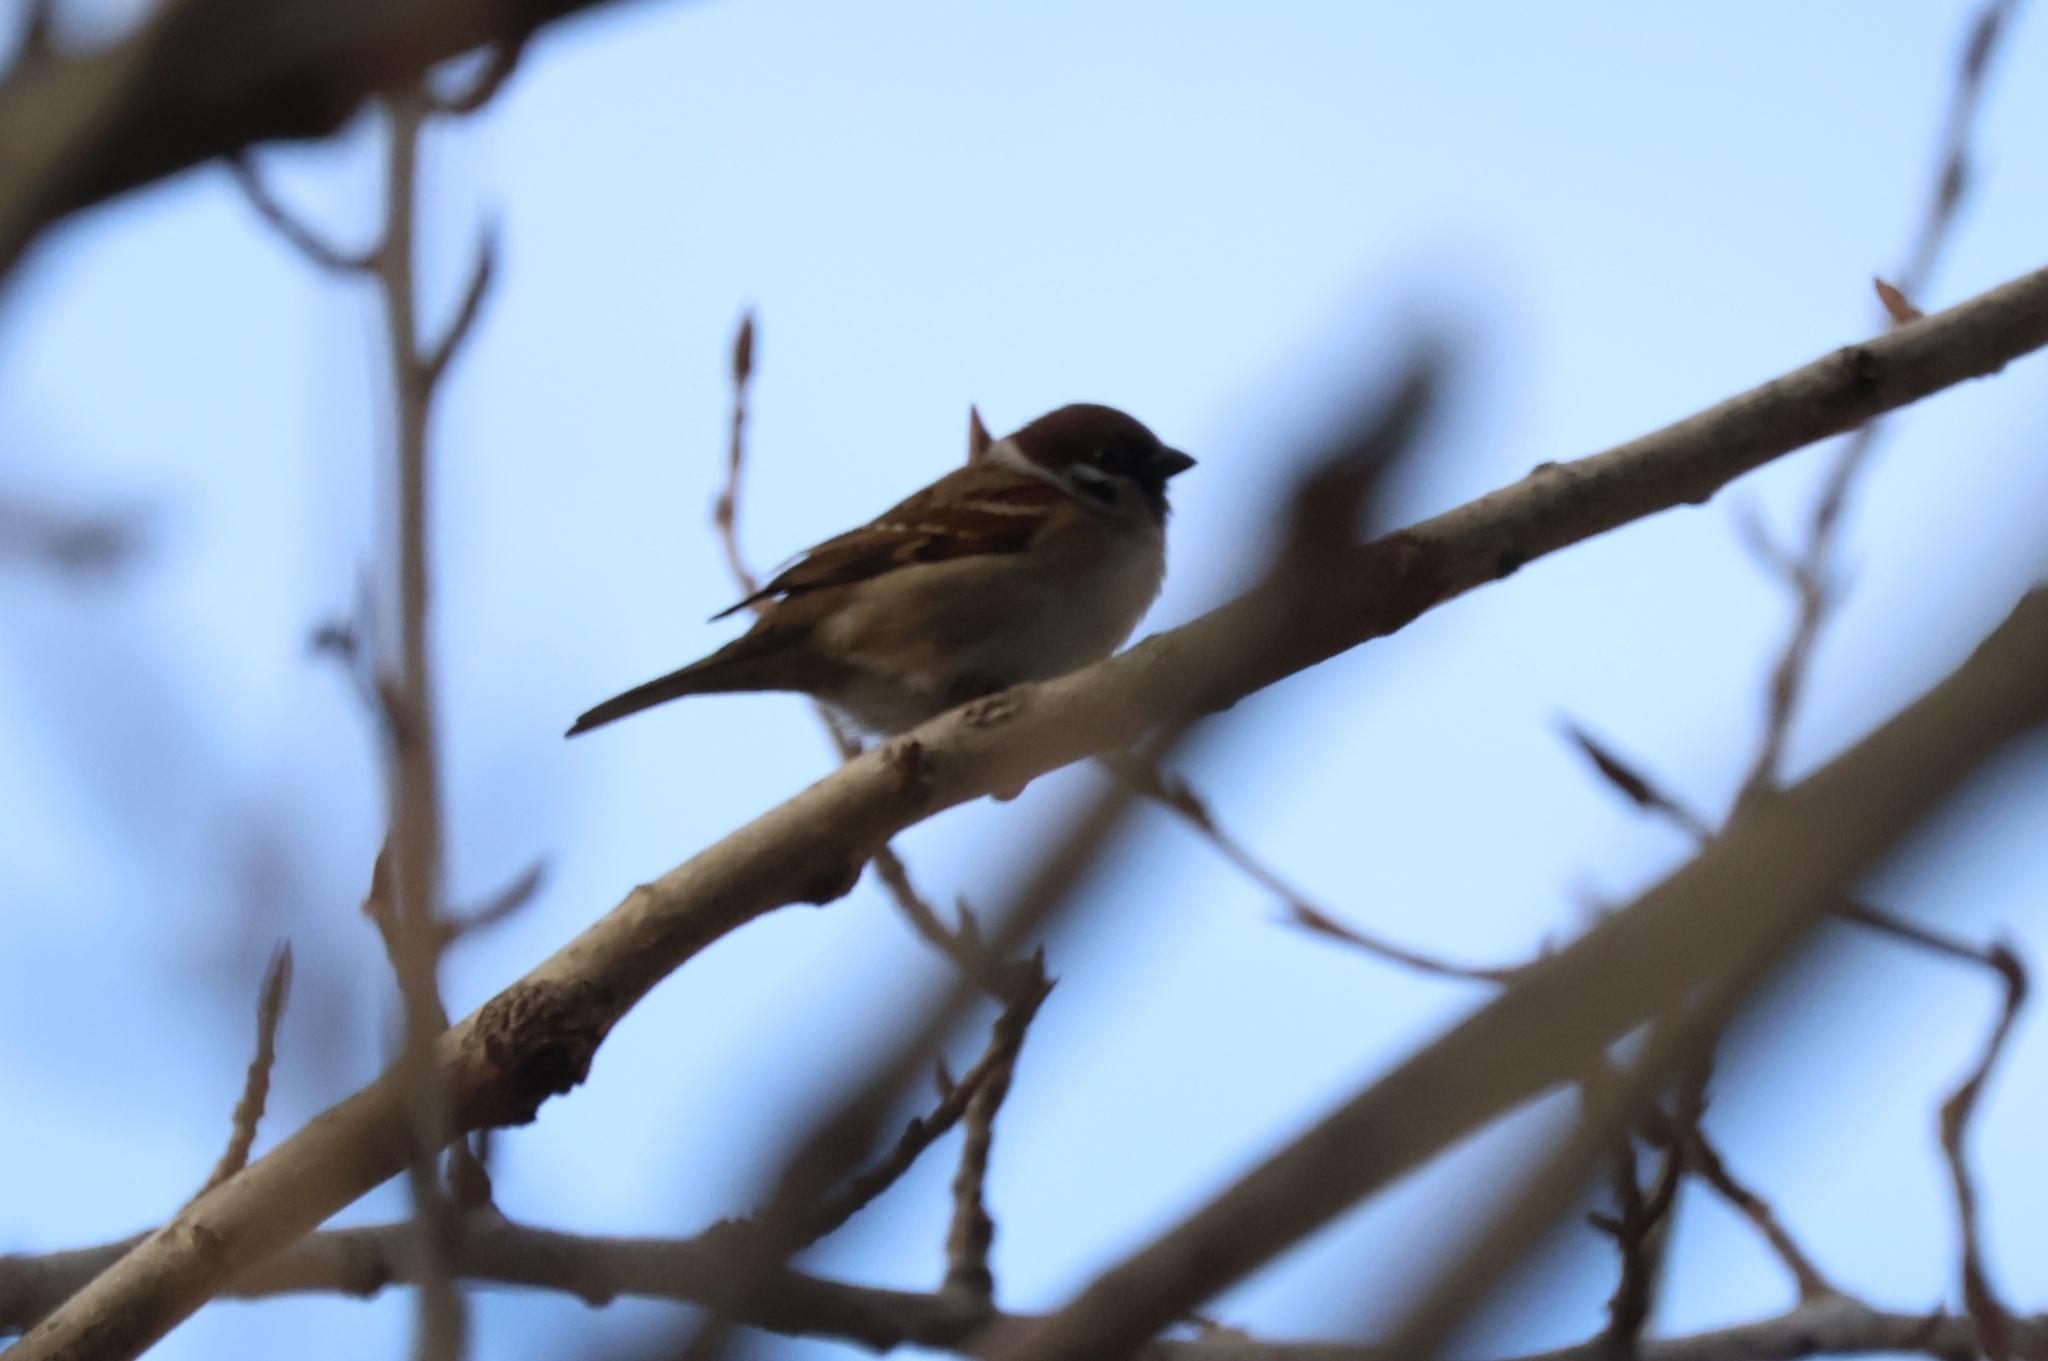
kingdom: Animalia
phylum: Chordata
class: Aves
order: Passeriformes
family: Passeridae
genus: Passer
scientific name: Passer montanus
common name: Eurasian tree sparrow
